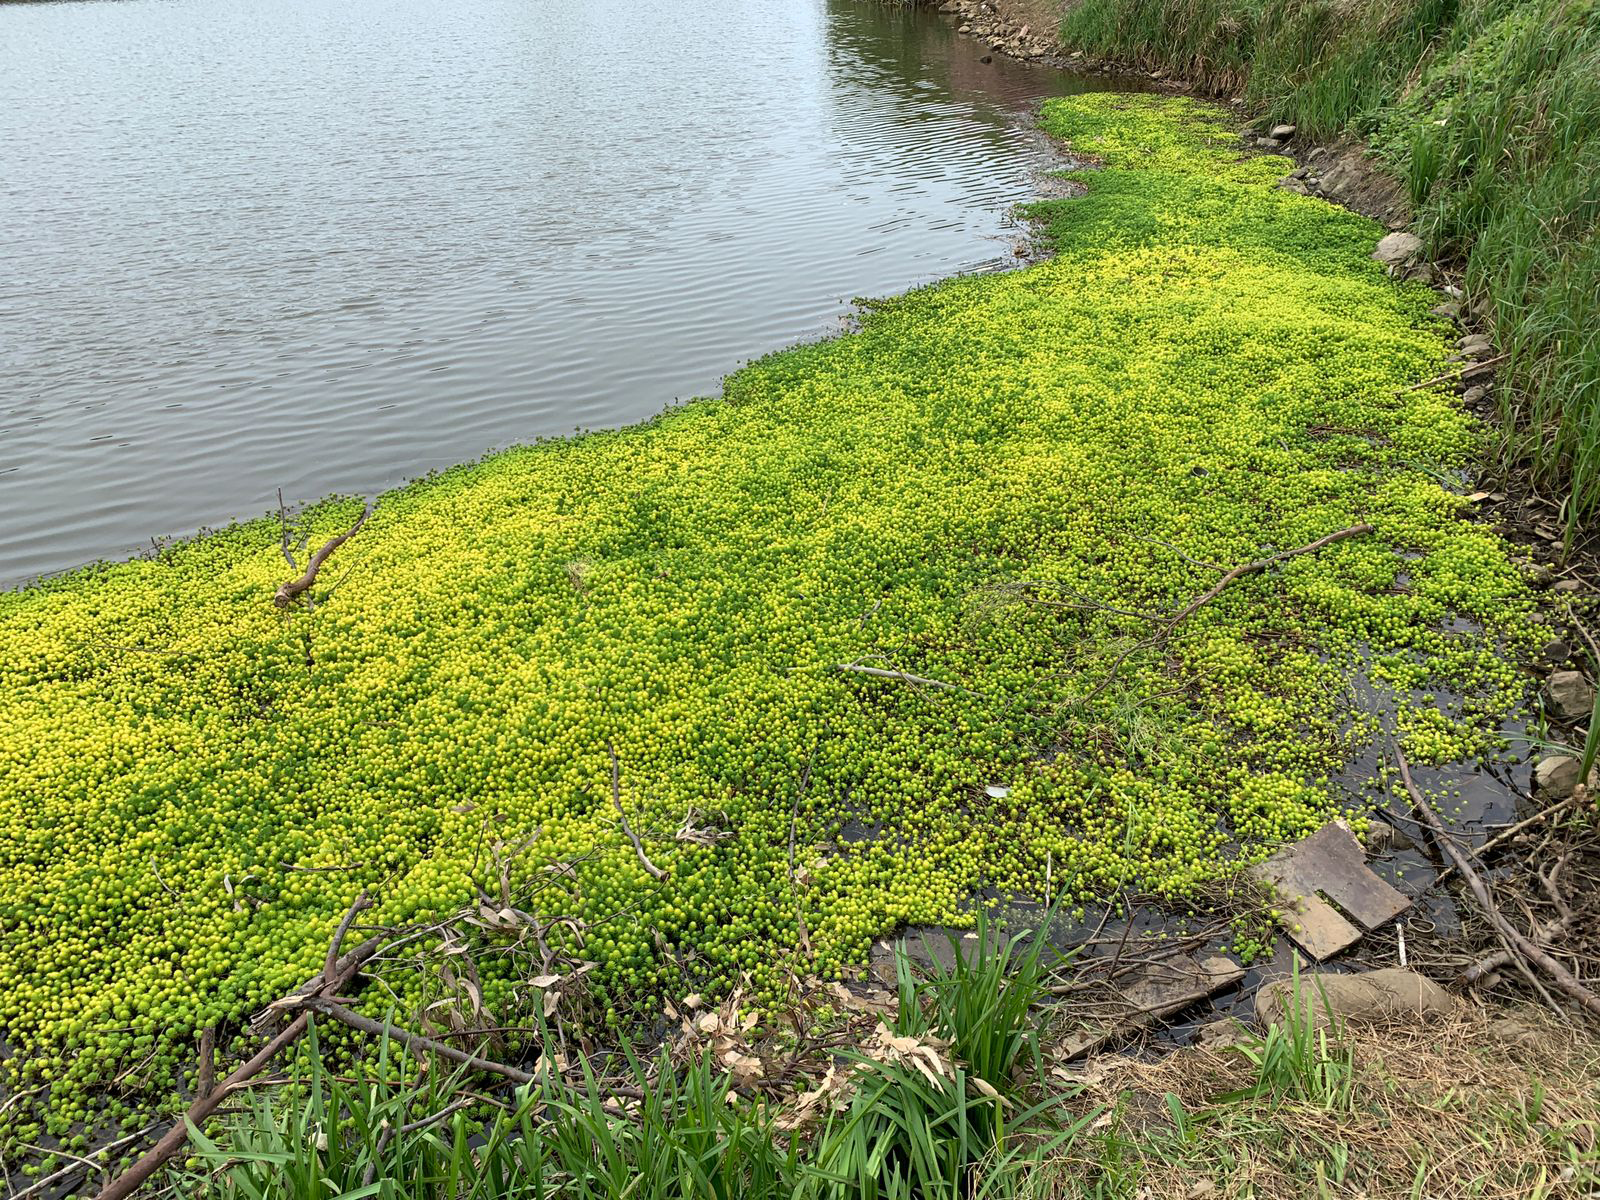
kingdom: Plantae
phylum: Tracheophyta
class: Magnoliopsida
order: Saxifragales
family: Haloragaceae
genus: Myriophyllum
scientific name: Myriophyllum aquaticum
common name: Parrot's feather
